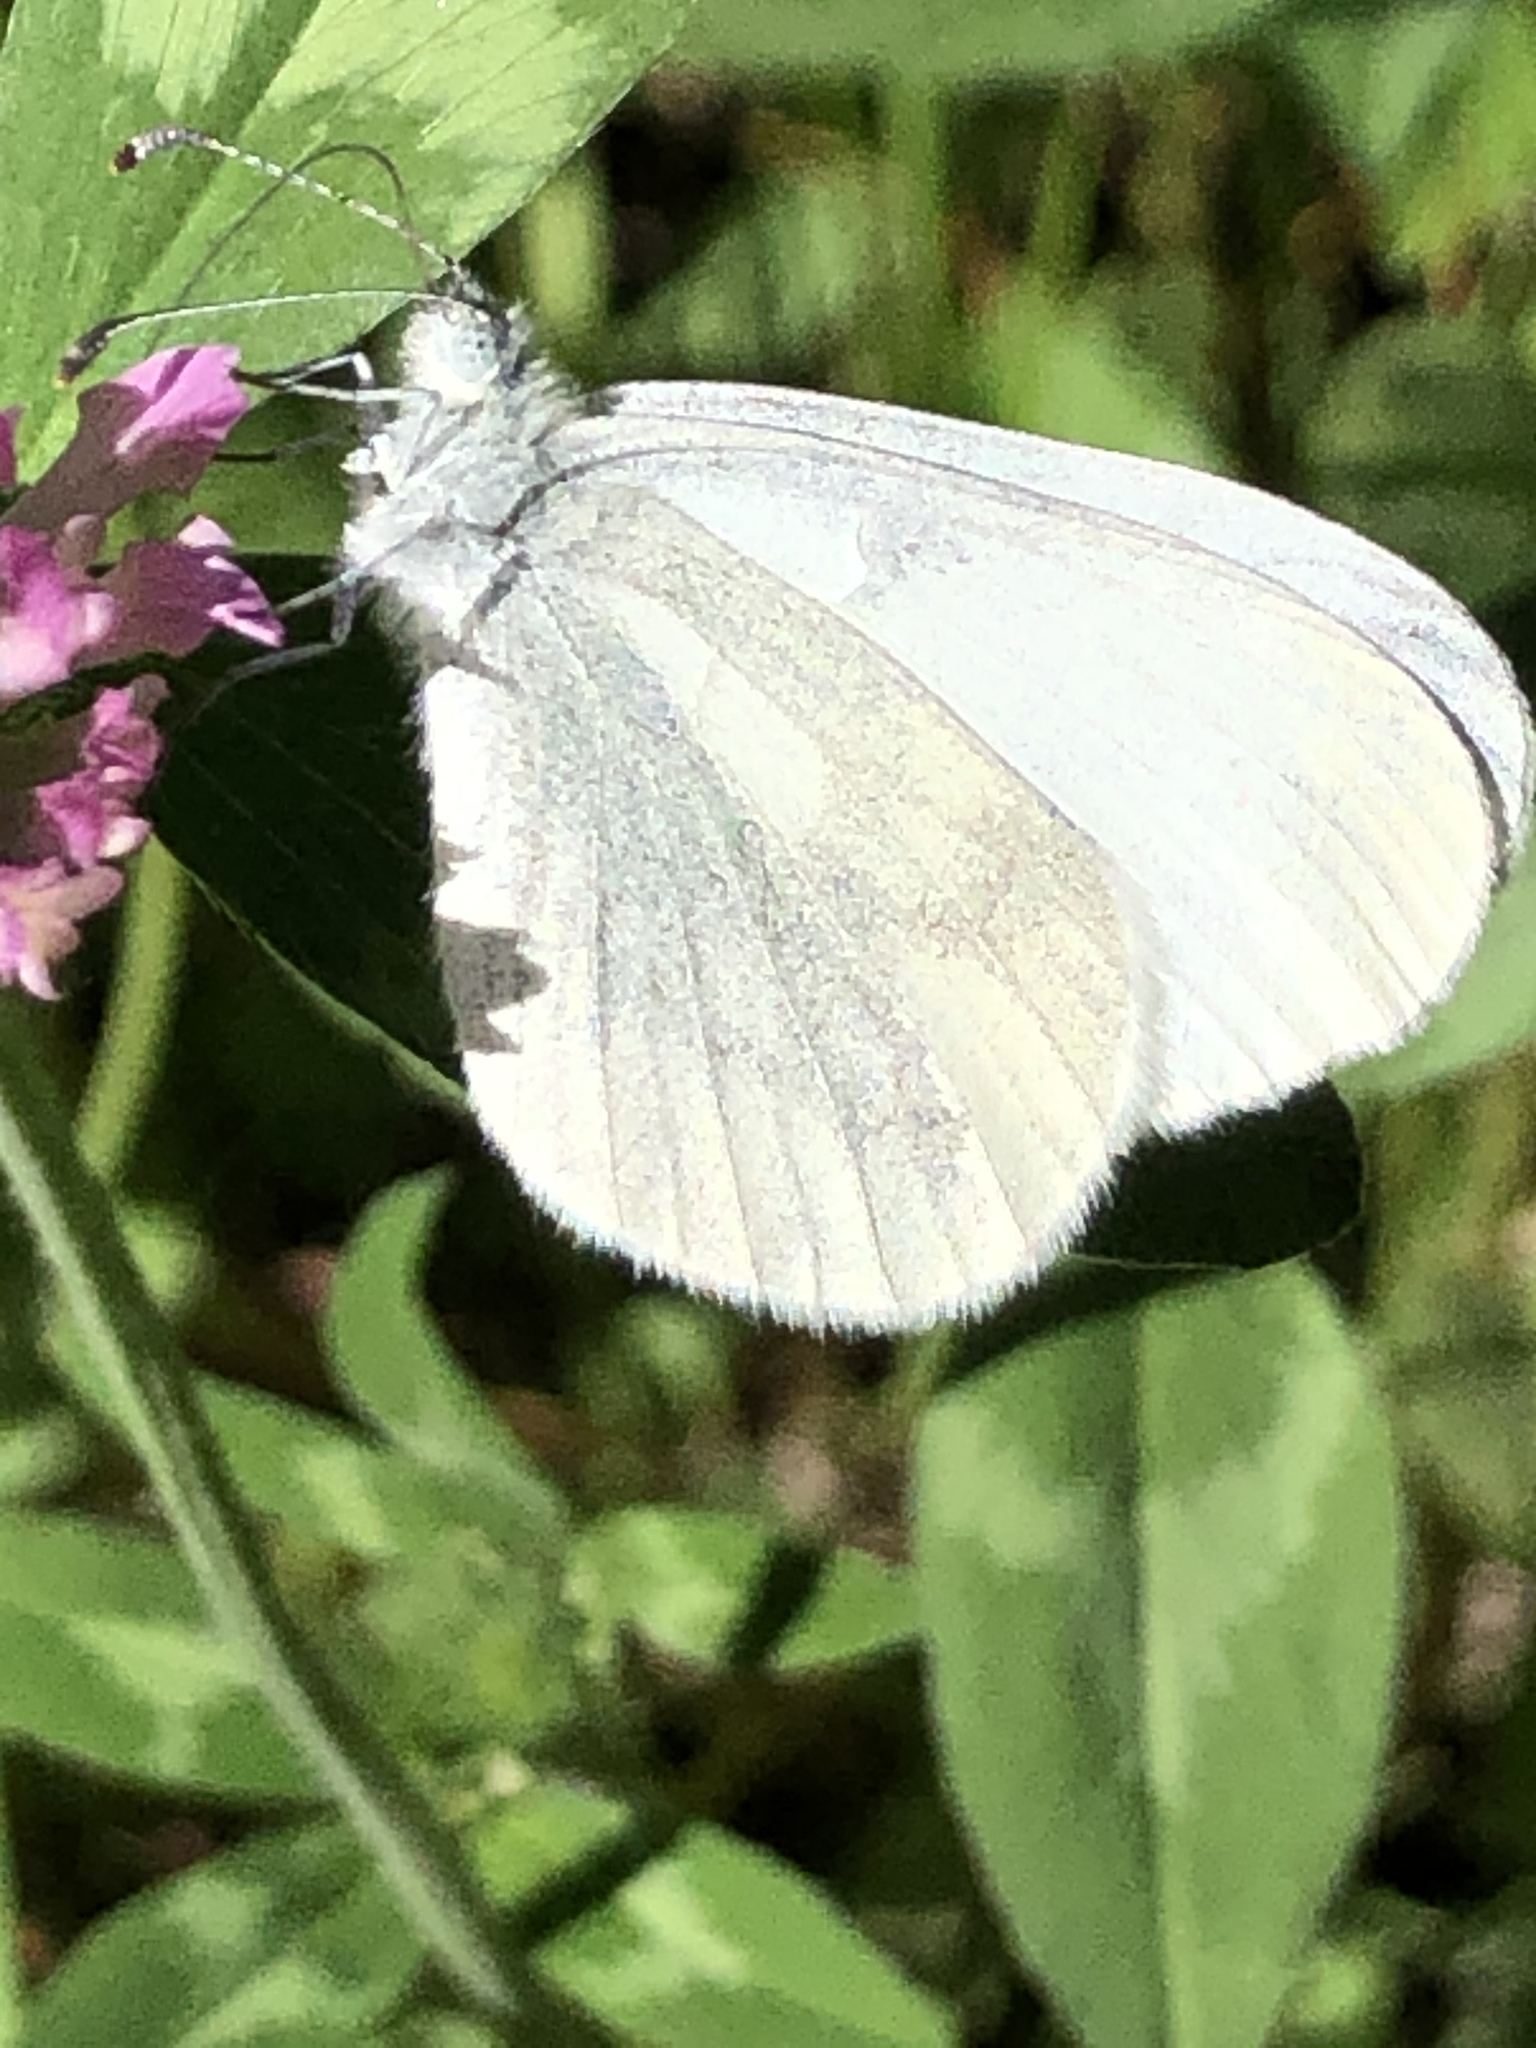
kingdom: Animalia
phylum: Arthropoda
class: Insecta
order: Lepidoptera
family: Pieridae
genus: Leptidea
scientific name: Leptidea sinapis
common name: Wood white
